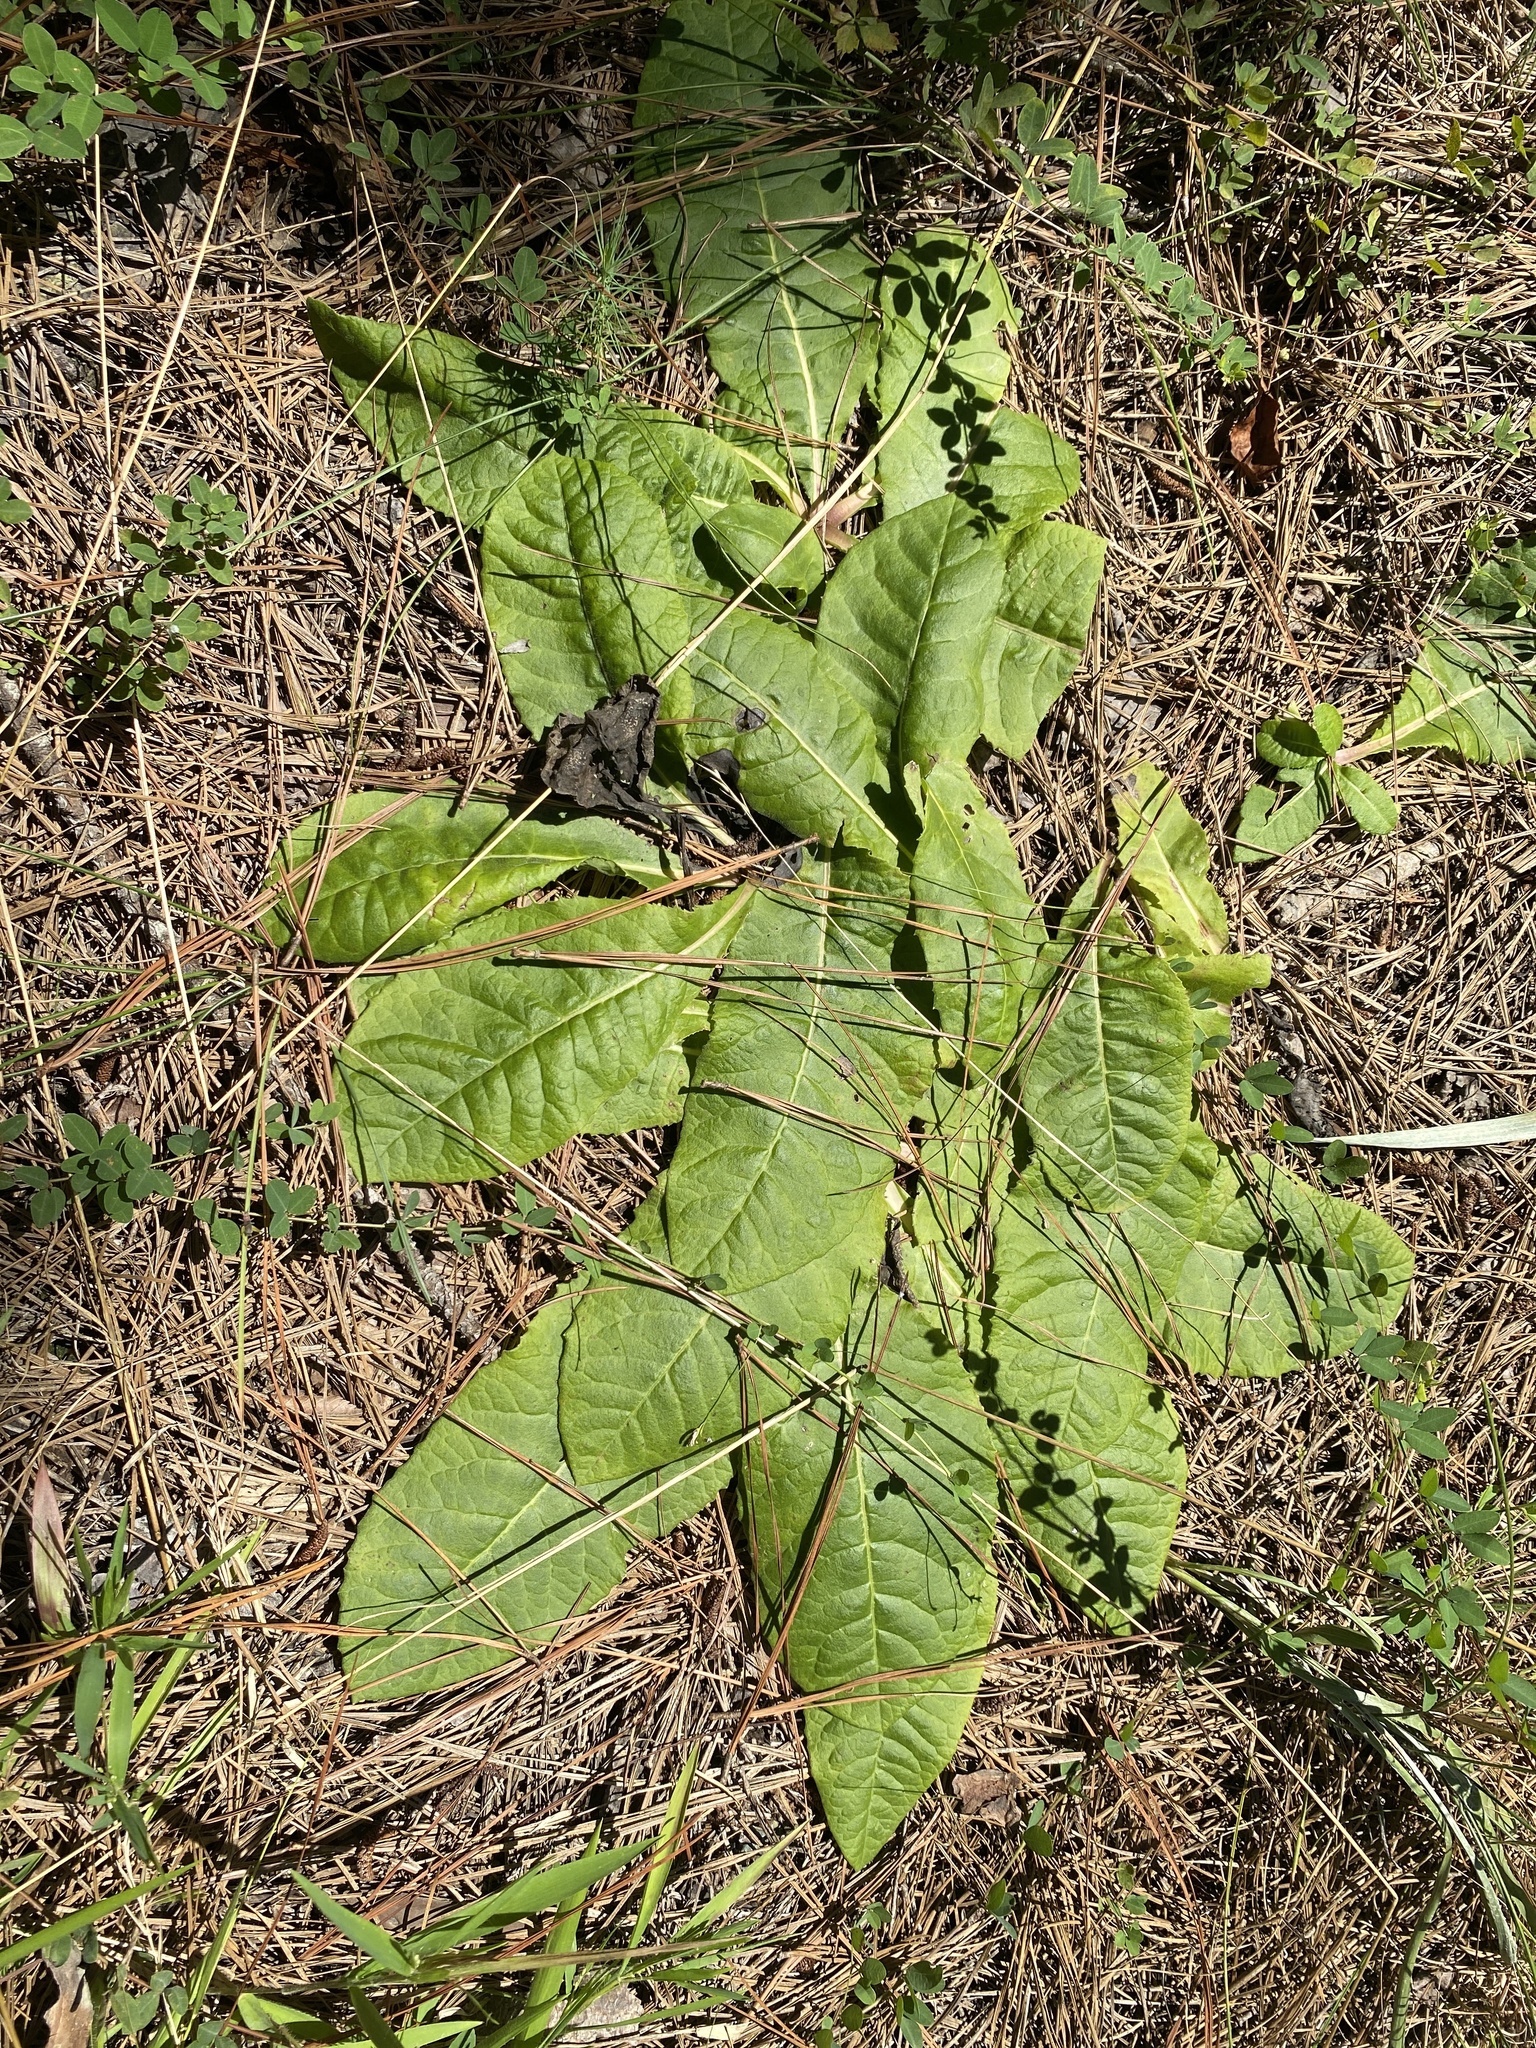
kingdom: Plantae
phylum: Tracheophyta
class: Magnoliopsida
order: Asterales
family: Asteraceae
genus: Vernonia
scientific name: Vernonia acaulis
